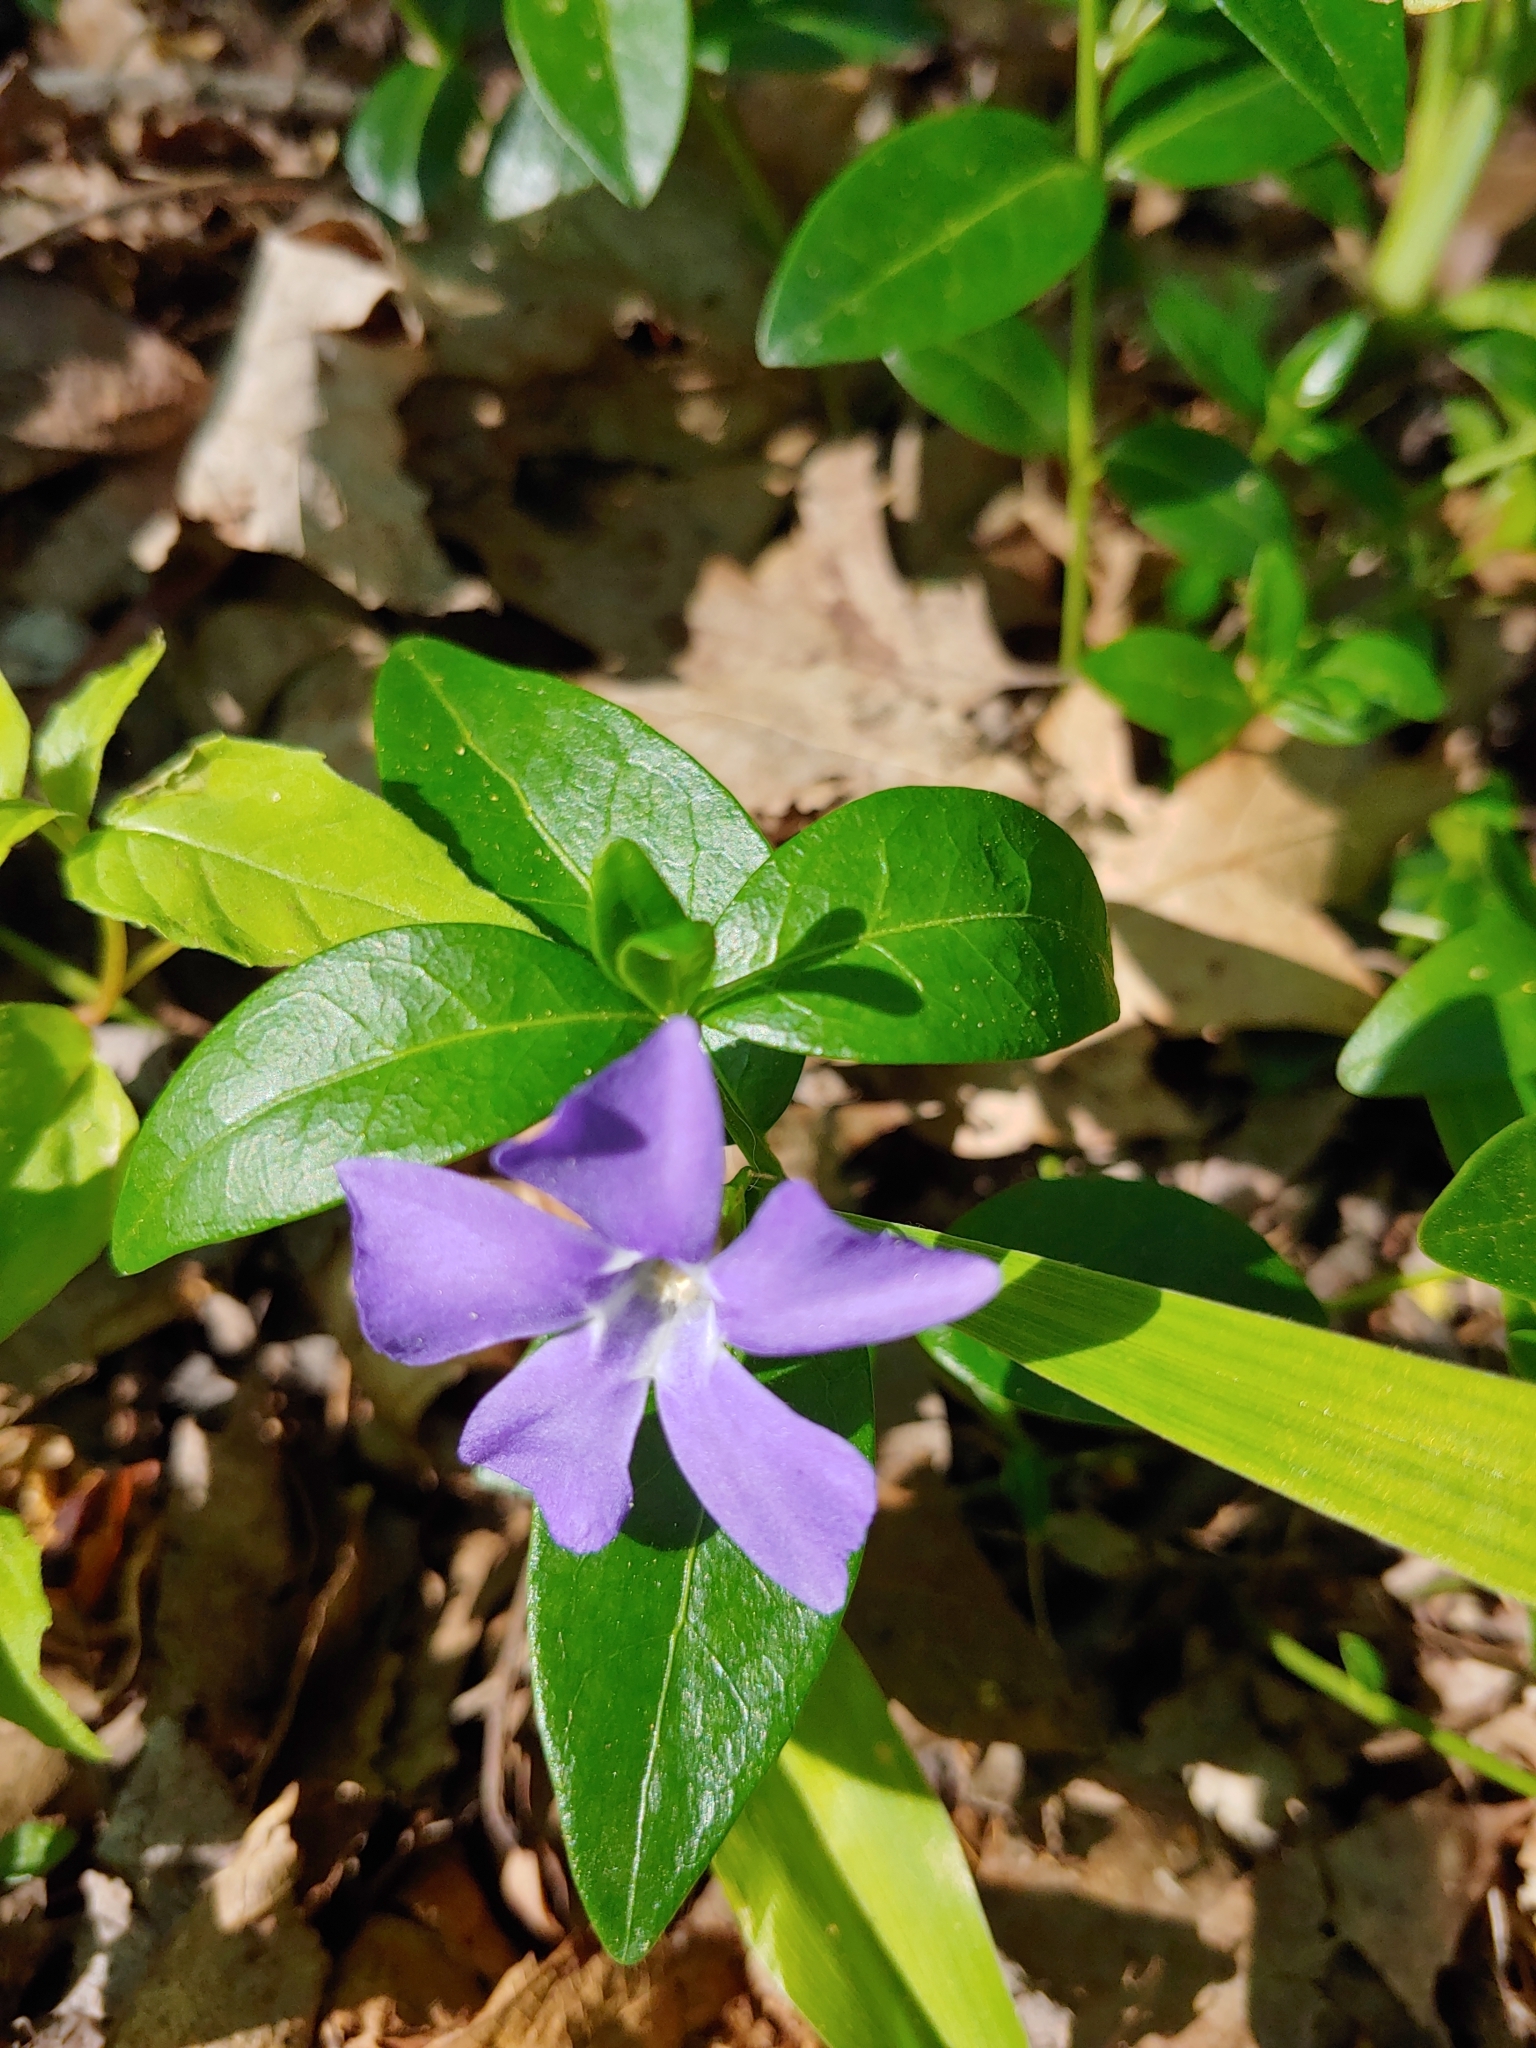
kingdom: Plantae
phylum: Tracheophyta
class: Magnoliopsida
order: Gentianales
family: Apocynaceae
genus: Vinca
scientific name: Vinca minor
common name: Lesser periwinkle
